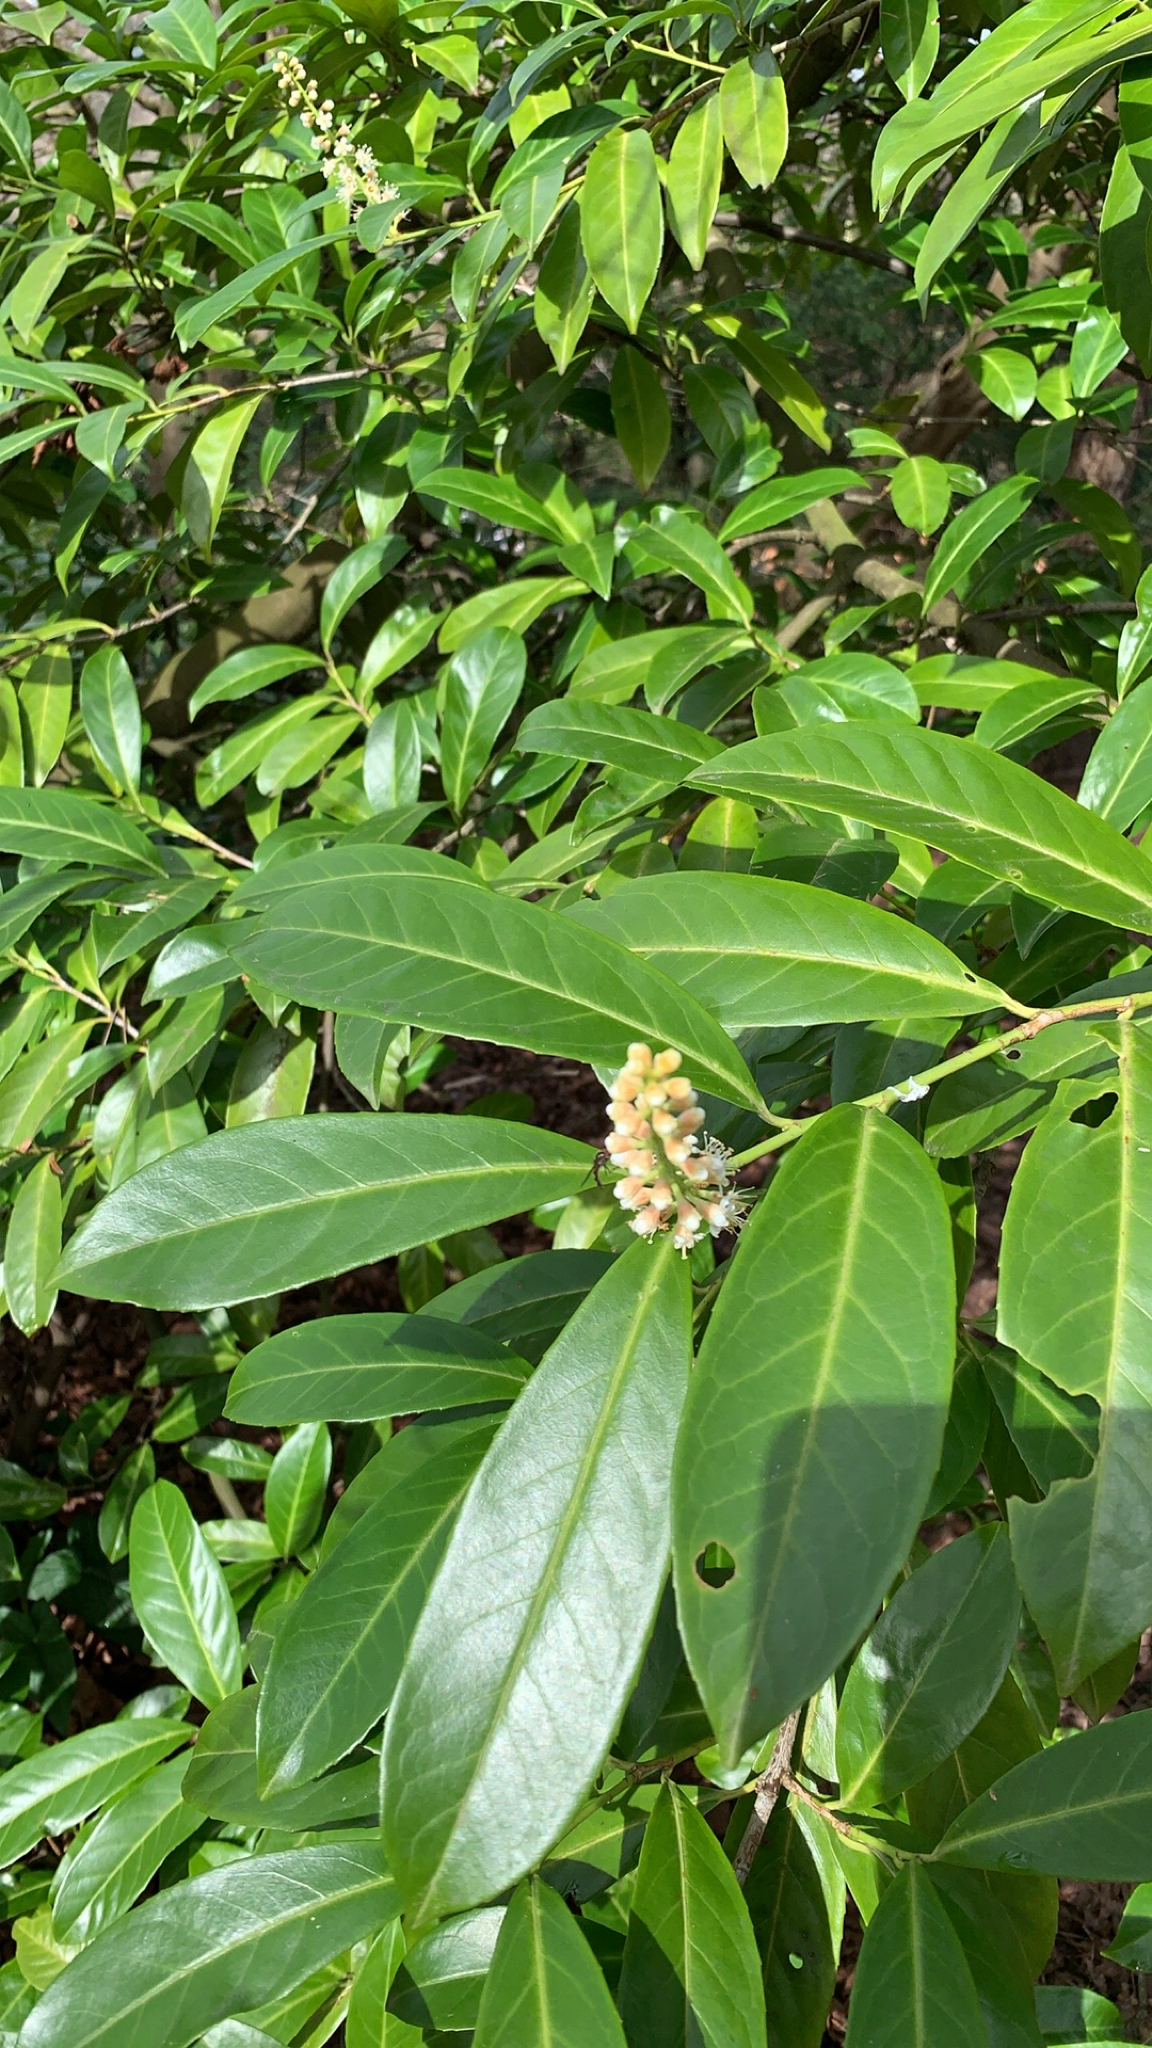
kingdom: Plantae
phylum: Tracheophyta
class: Magnoliopsida
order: Rosales
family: Rosaceae
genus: Prunus
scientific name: Prunus laurocerasus
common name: Cherry laurel
